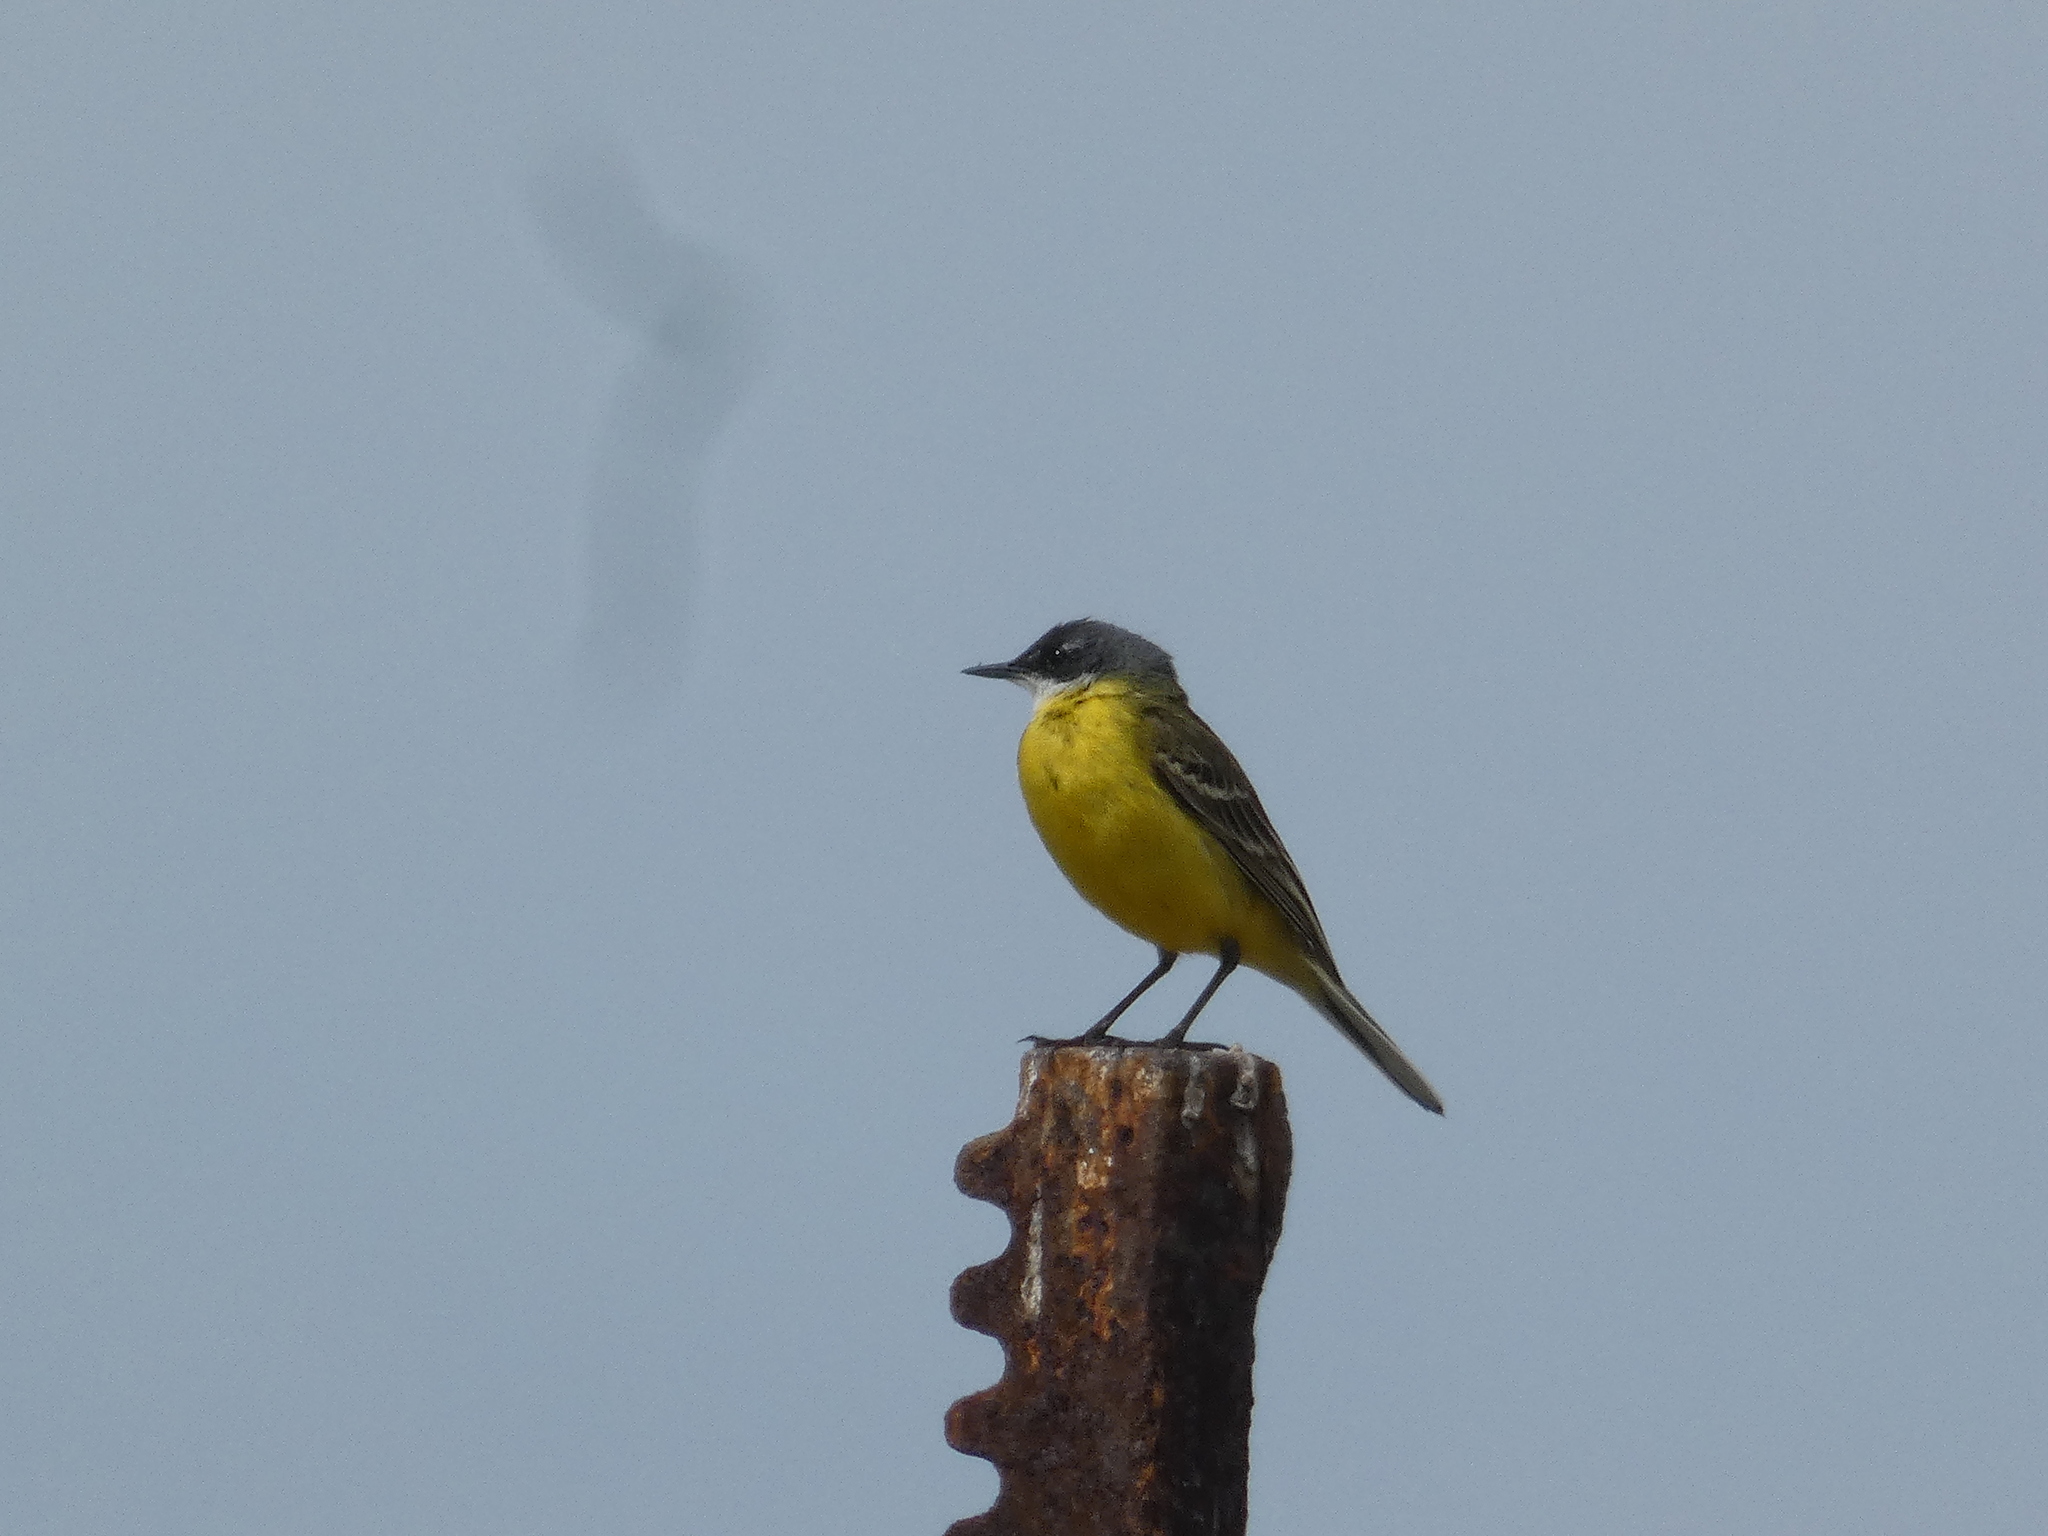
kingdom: Animalia
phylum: Chordata
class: Aves
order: Passeriformes
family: Motacillidae
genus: Motacilla
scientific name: Motacilla flava
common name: Western yellow wagtail
